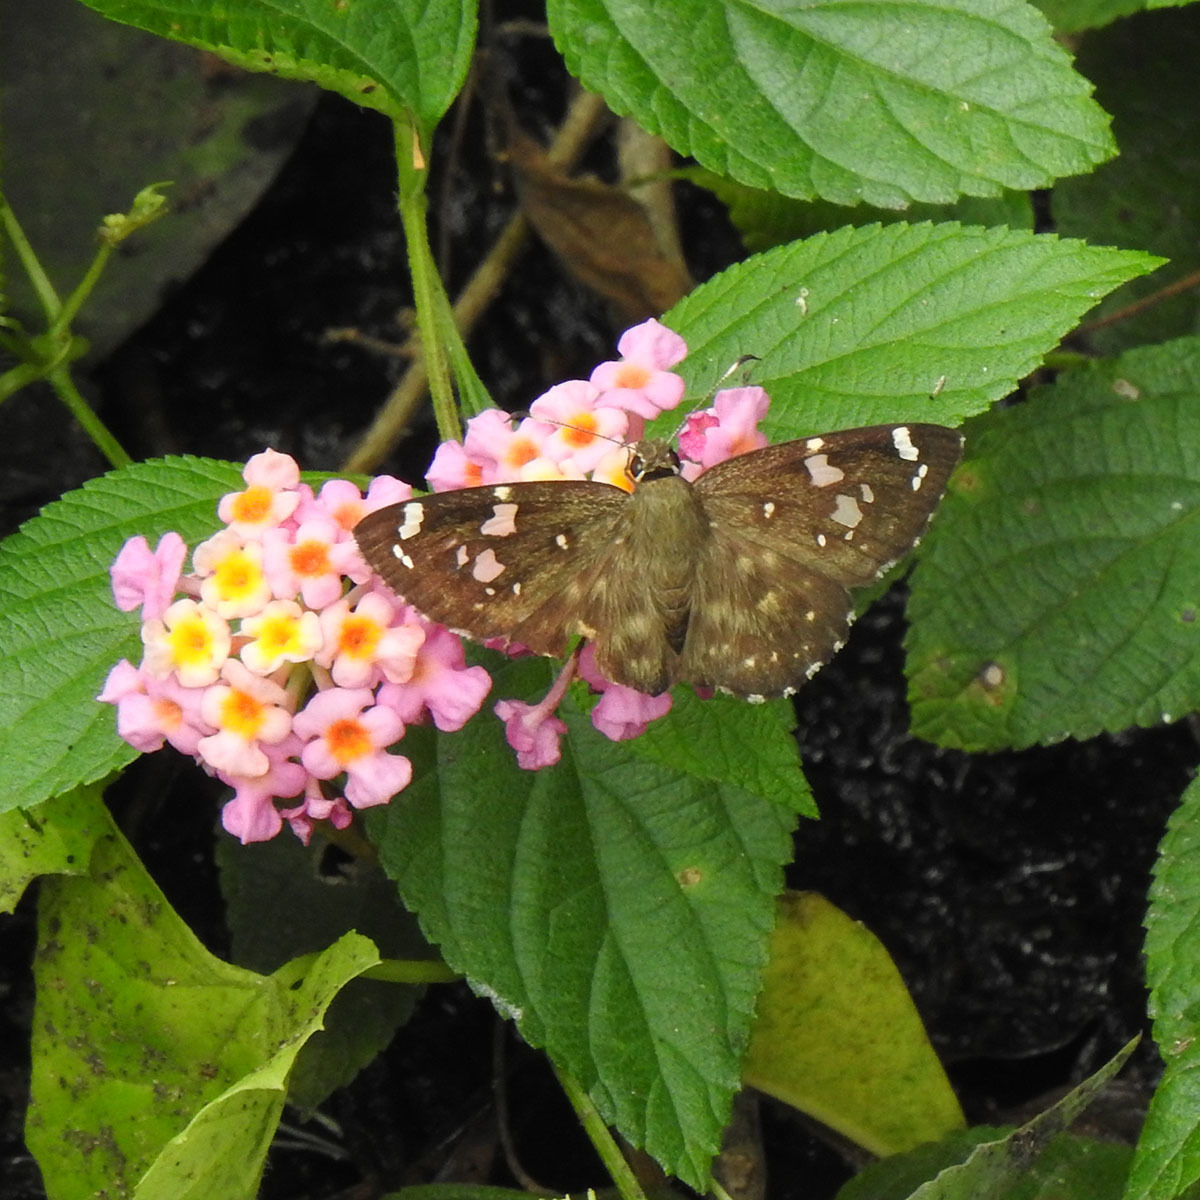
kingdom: Animalia
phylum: Arthropoda
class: Insecta
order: Lepidoptera
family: Hesperiidae
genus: Celaenorrhinus
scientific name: Celaenorrhinus ambareesa
